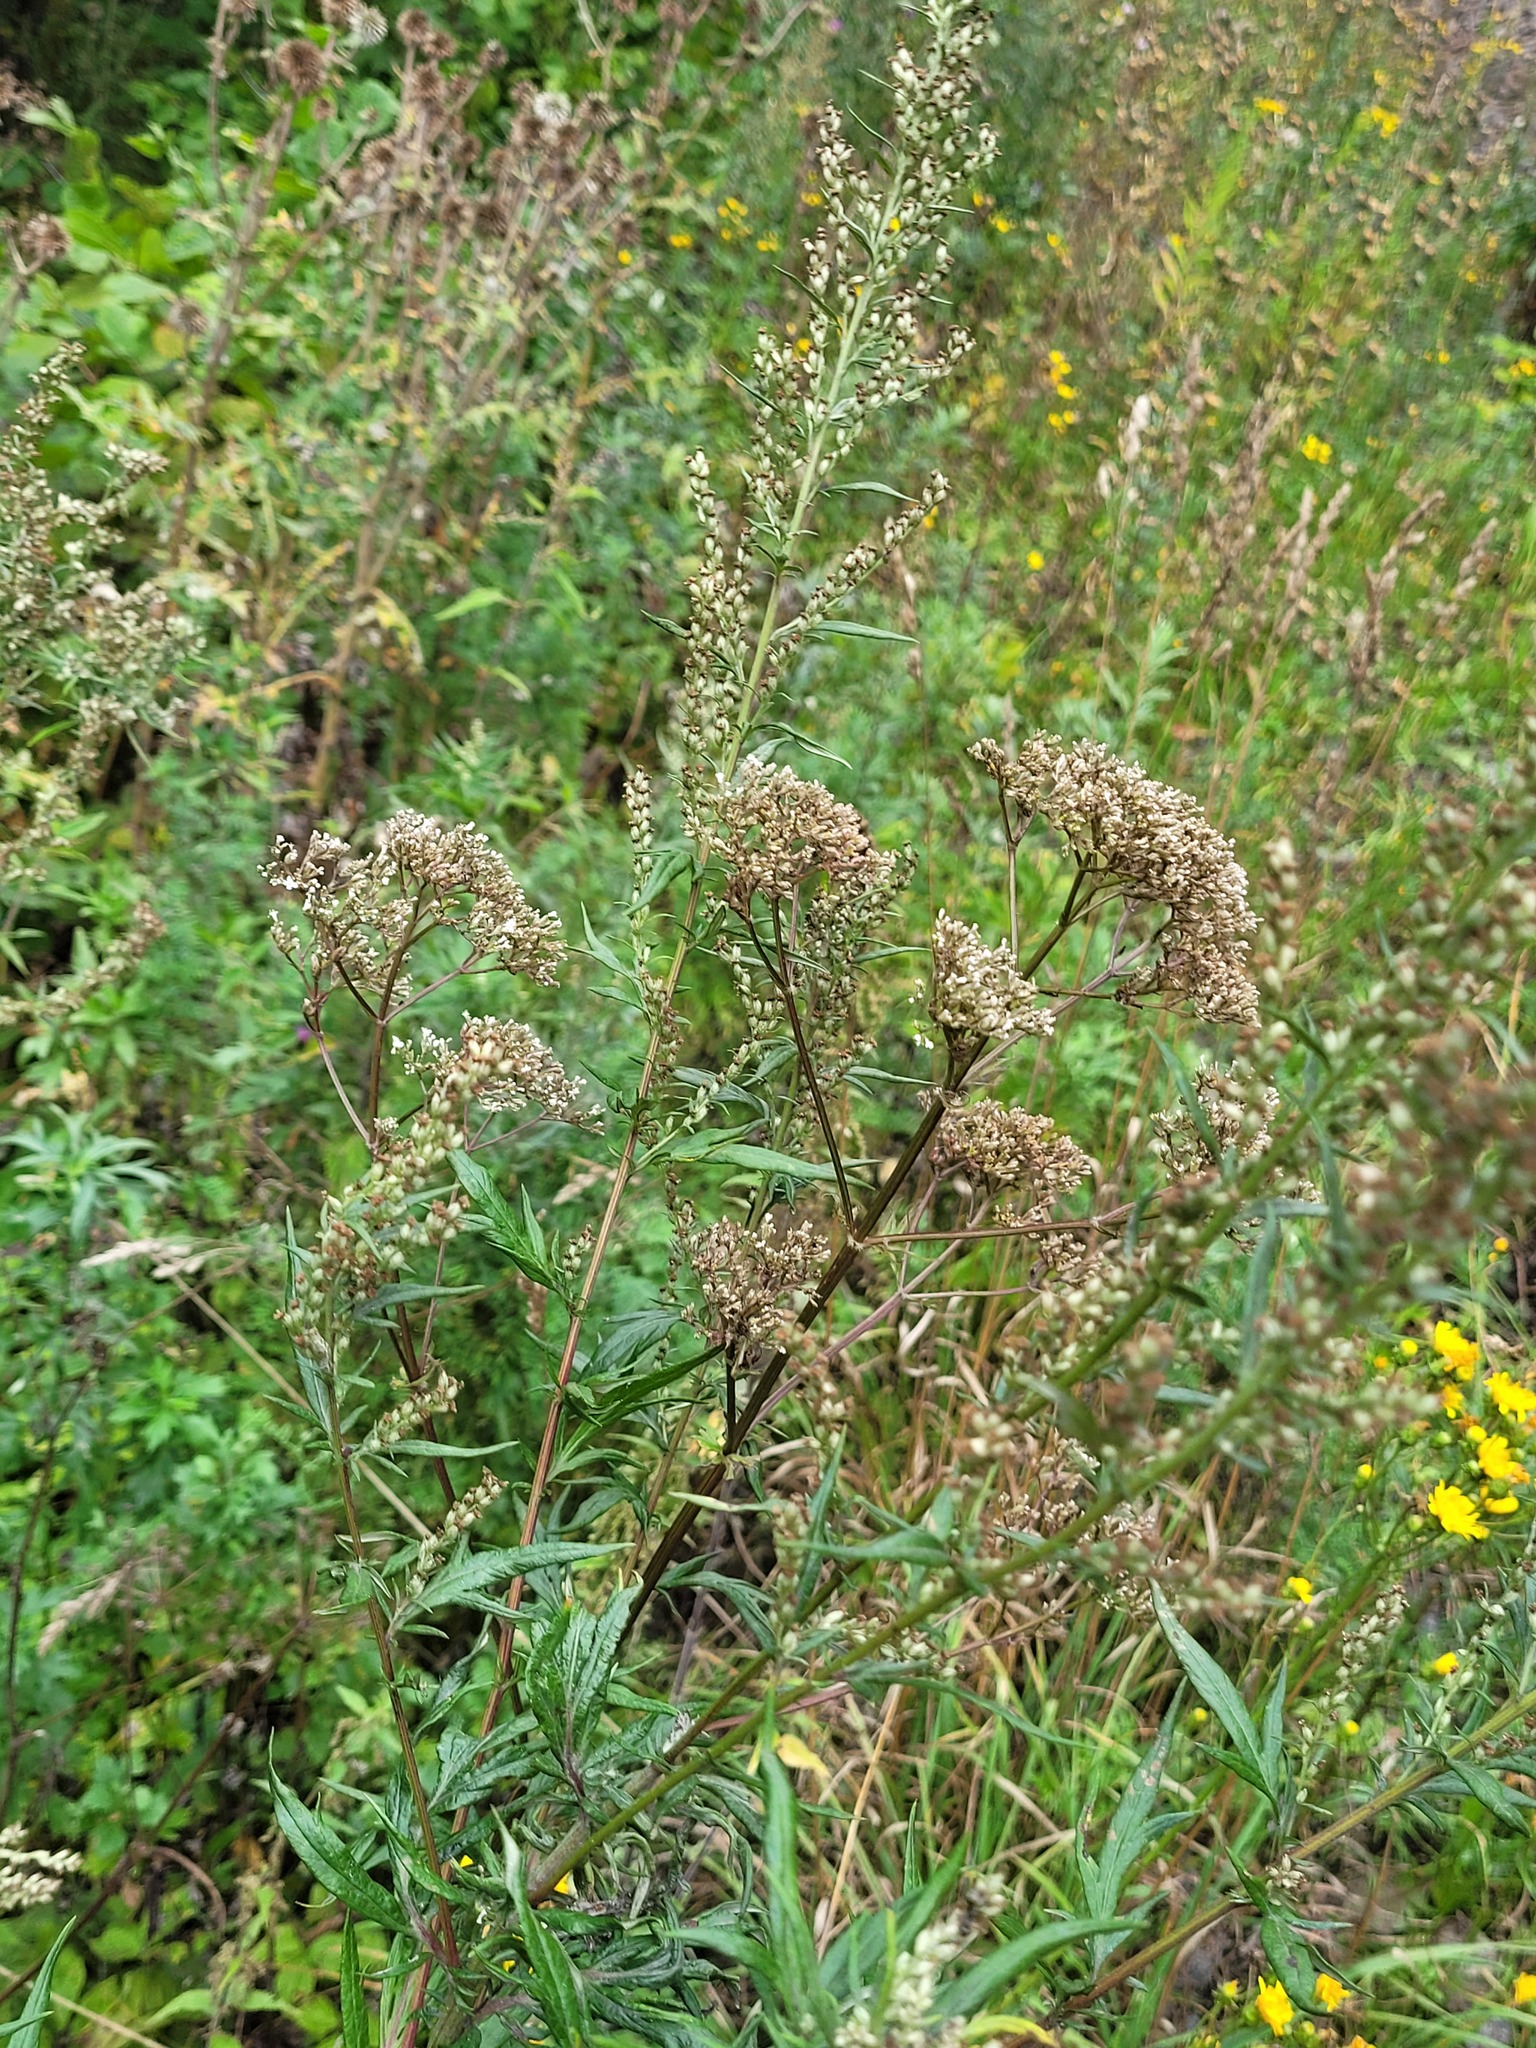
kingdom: Plantae
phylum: Tracheophyta
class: Magnoliopsida
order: Dipsacales
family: Caprifoliaceae
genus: Valeriana
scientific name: Valeriana officinalis
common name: Common valerian
